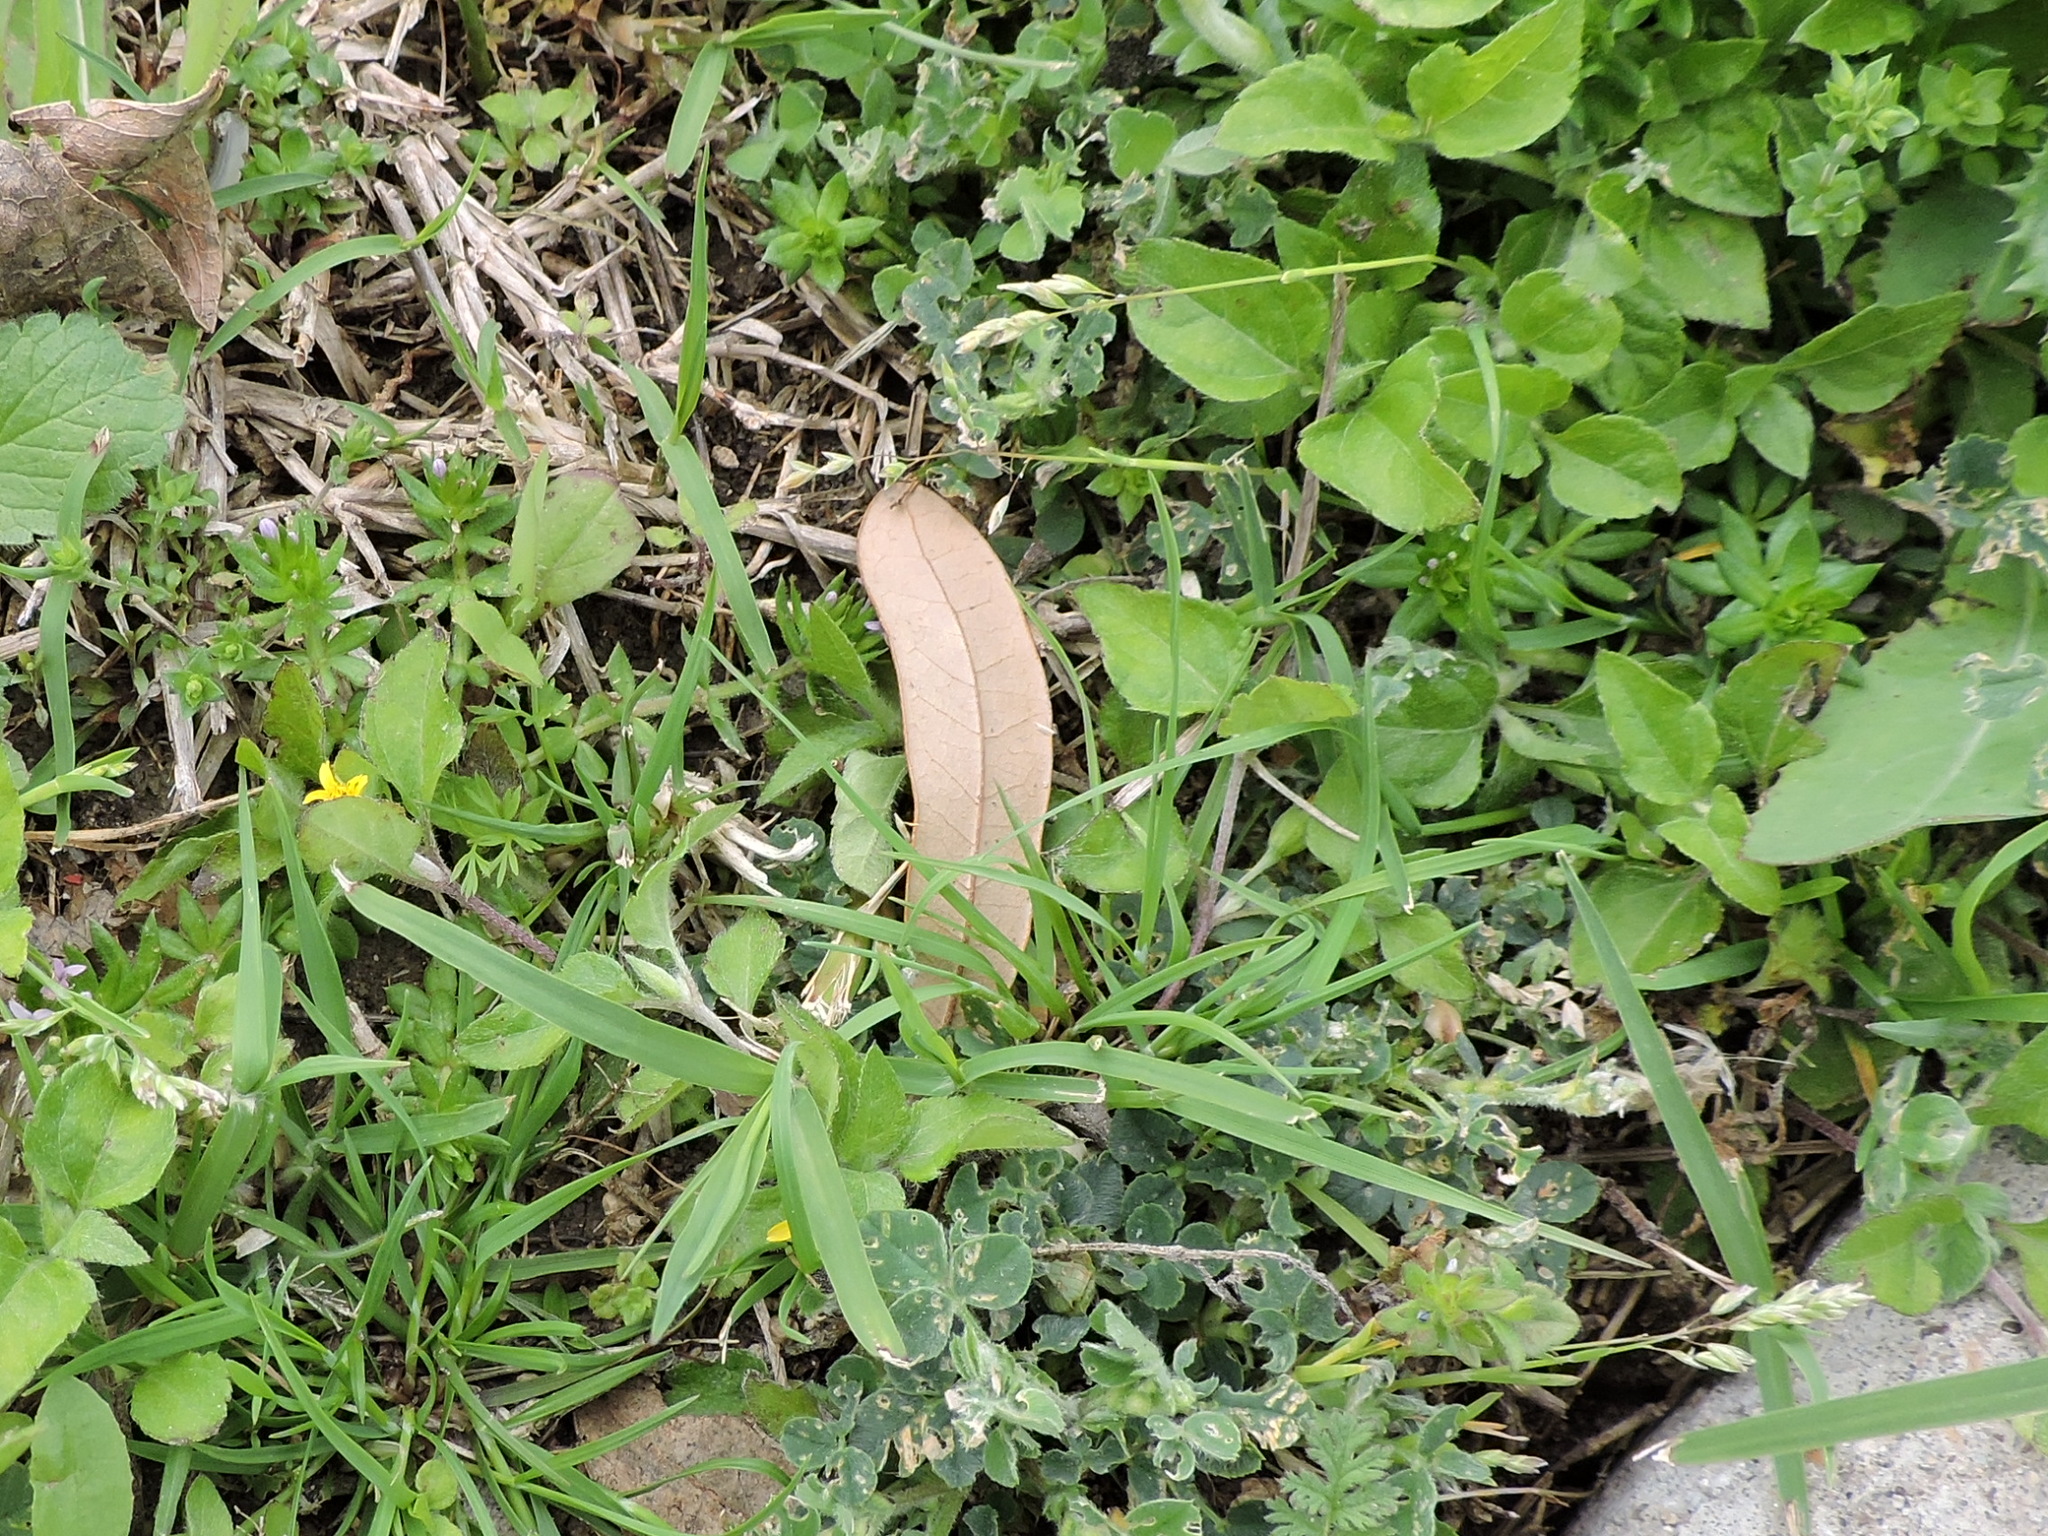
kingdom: Plantae
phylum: Tracheophyta
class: Magnoliopsida
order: Asterales
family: Asteraceae
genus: Calyptocarpus
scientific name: Calyptocarpus vialis
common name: Straggler daisy
